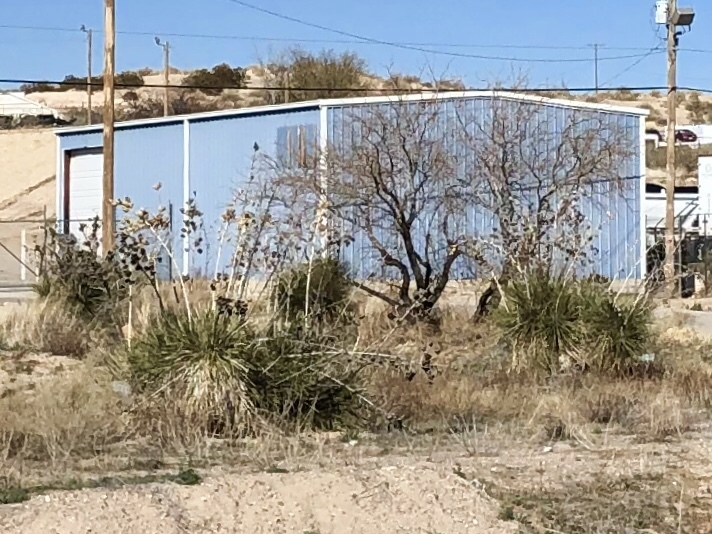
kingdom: Plantae
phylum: Tracheophyta
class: Liliopsida
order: Asparagales
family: Asparagaceae
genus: Yucca
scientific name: Yucca elata
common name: Palmella
